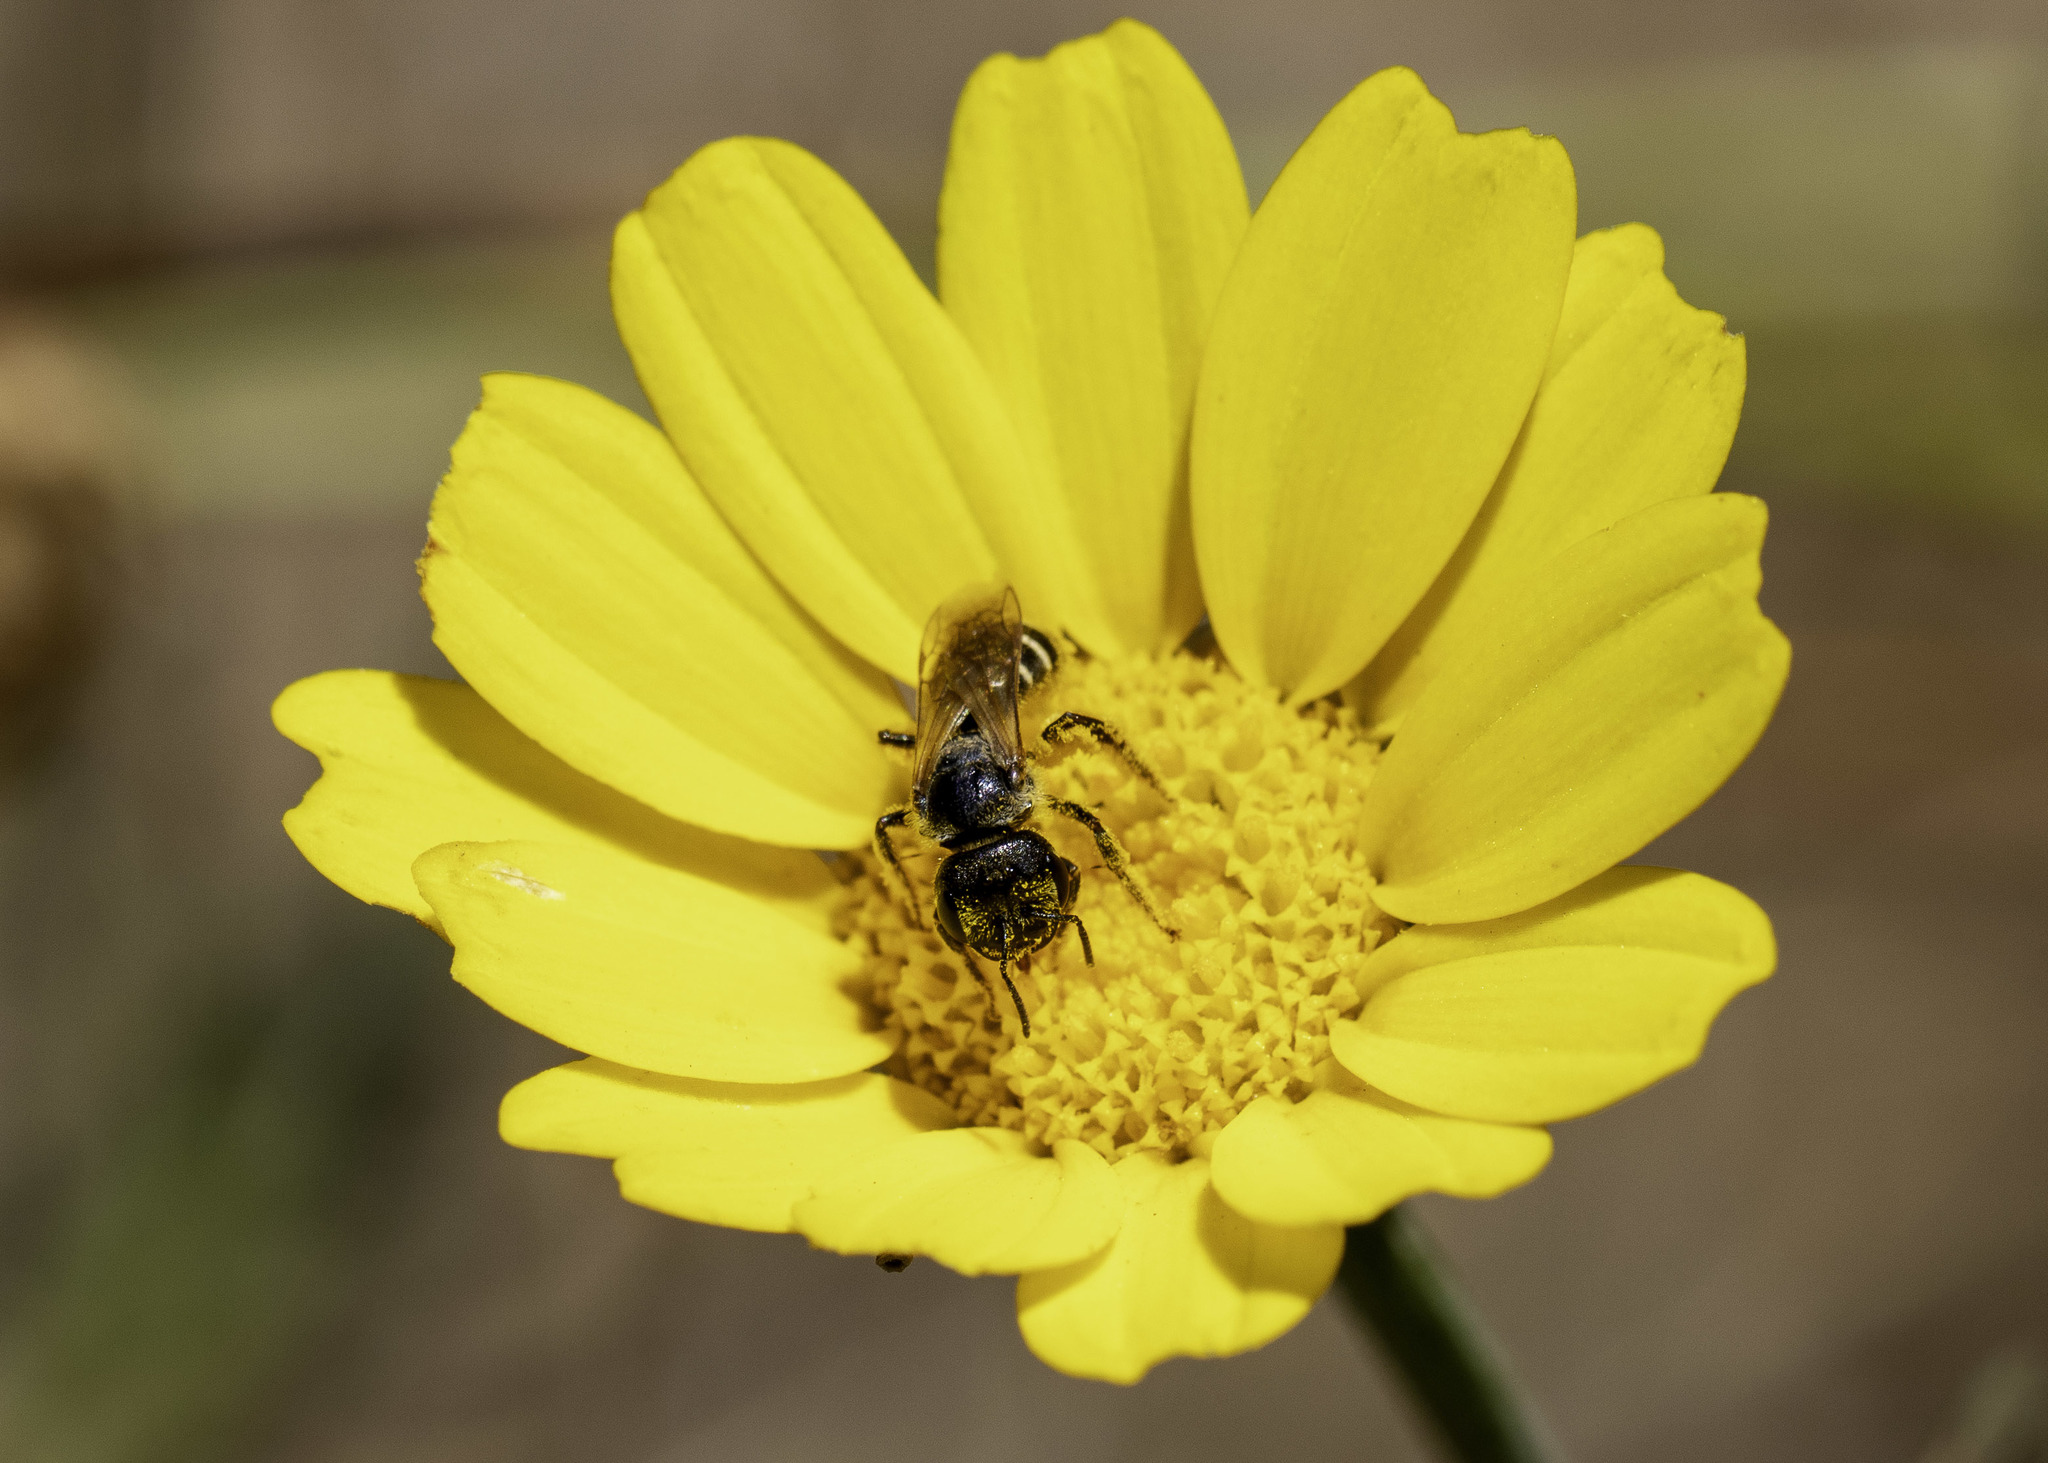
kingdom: Animalia
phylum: Arthropoda
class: Insecta
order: Hymenoptera
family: Halictidae
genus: Halictus
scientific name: Halictus ligatus
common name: Ligated furrow bee
